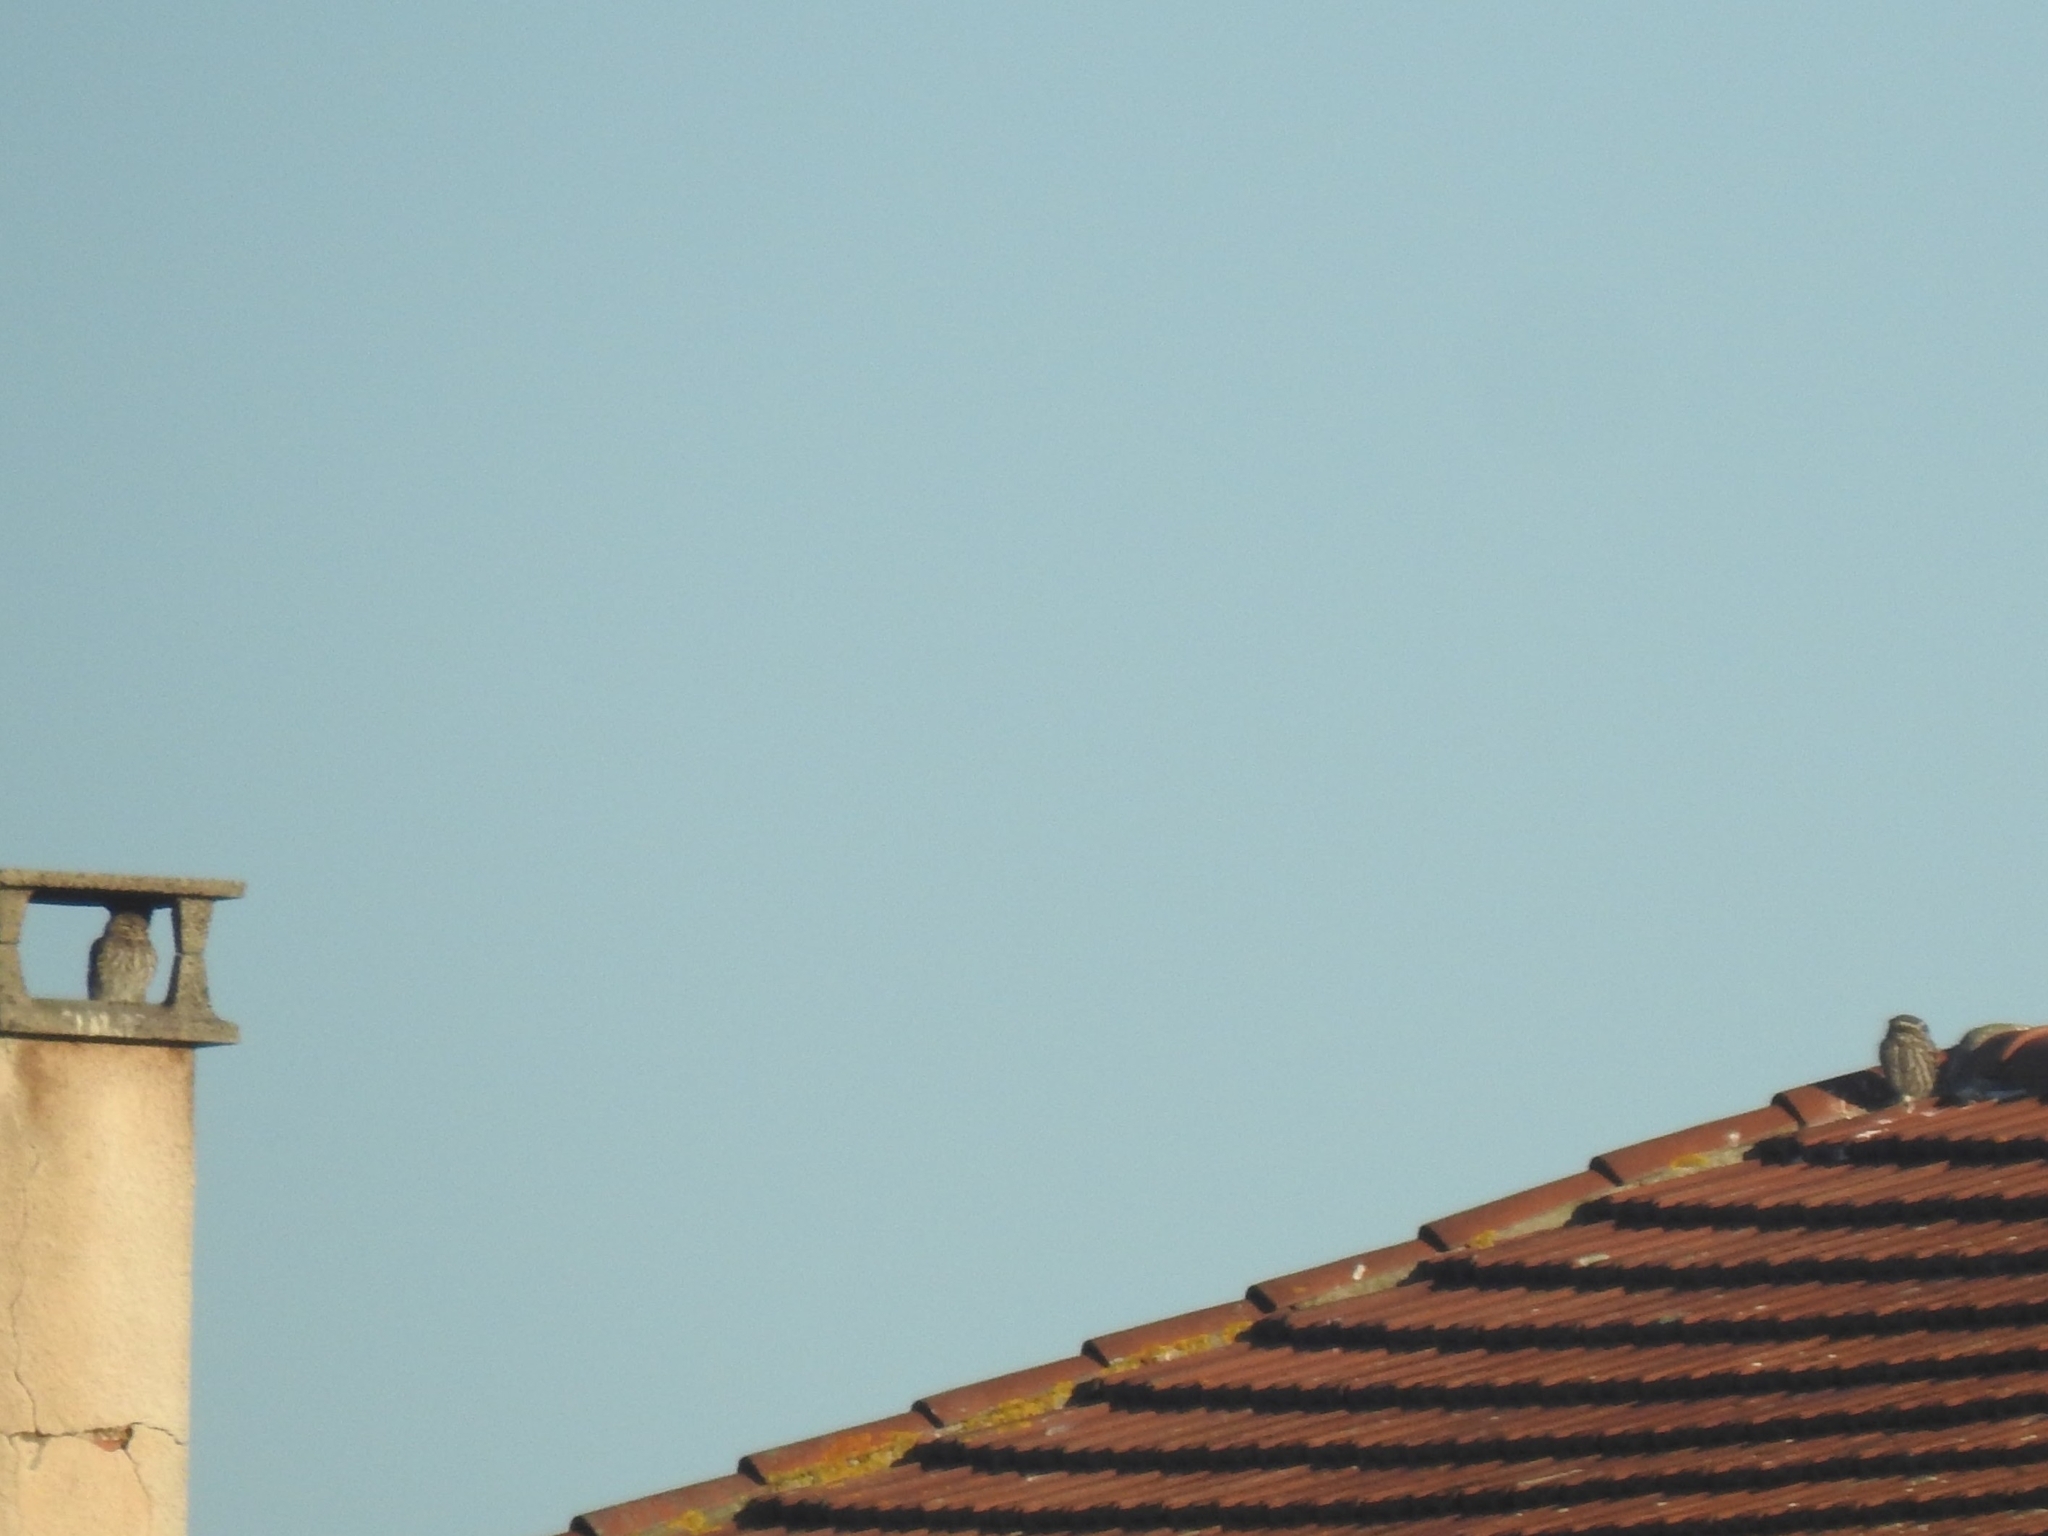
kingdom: Animalia
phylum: Chordata
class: Aves
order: Strigiformes
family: Strigidae
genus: Athene
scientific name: Athene noctua
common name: Little owl
